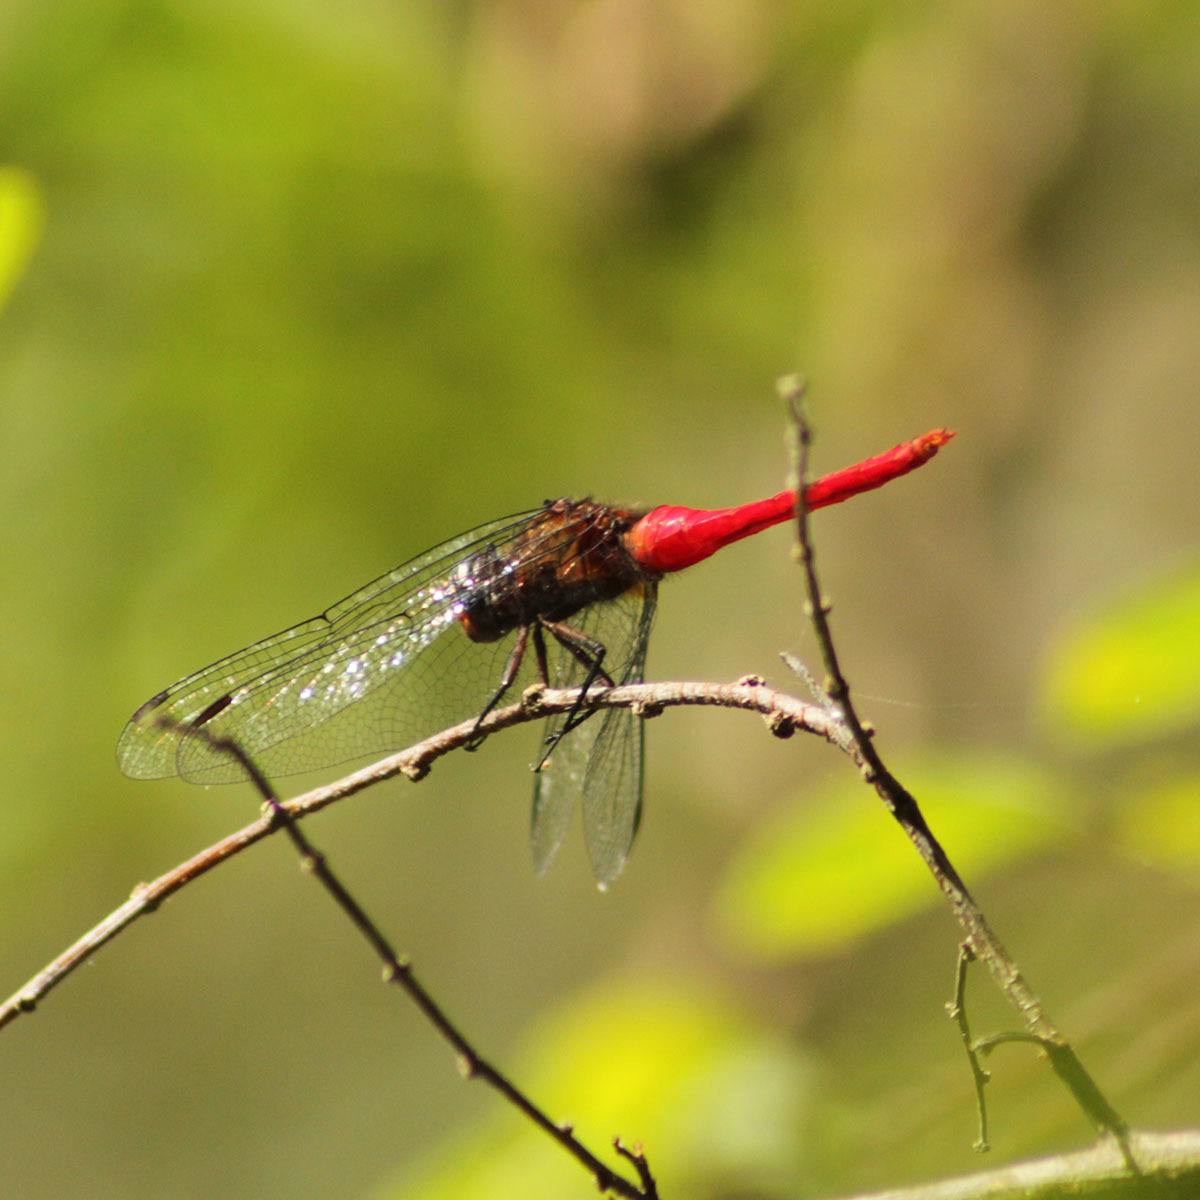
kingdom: Animalia
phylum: Arthropoda
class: Insecta
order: Odonata
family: Libellulidae
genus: Orthetrum
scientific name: Orthetrum chrysis
